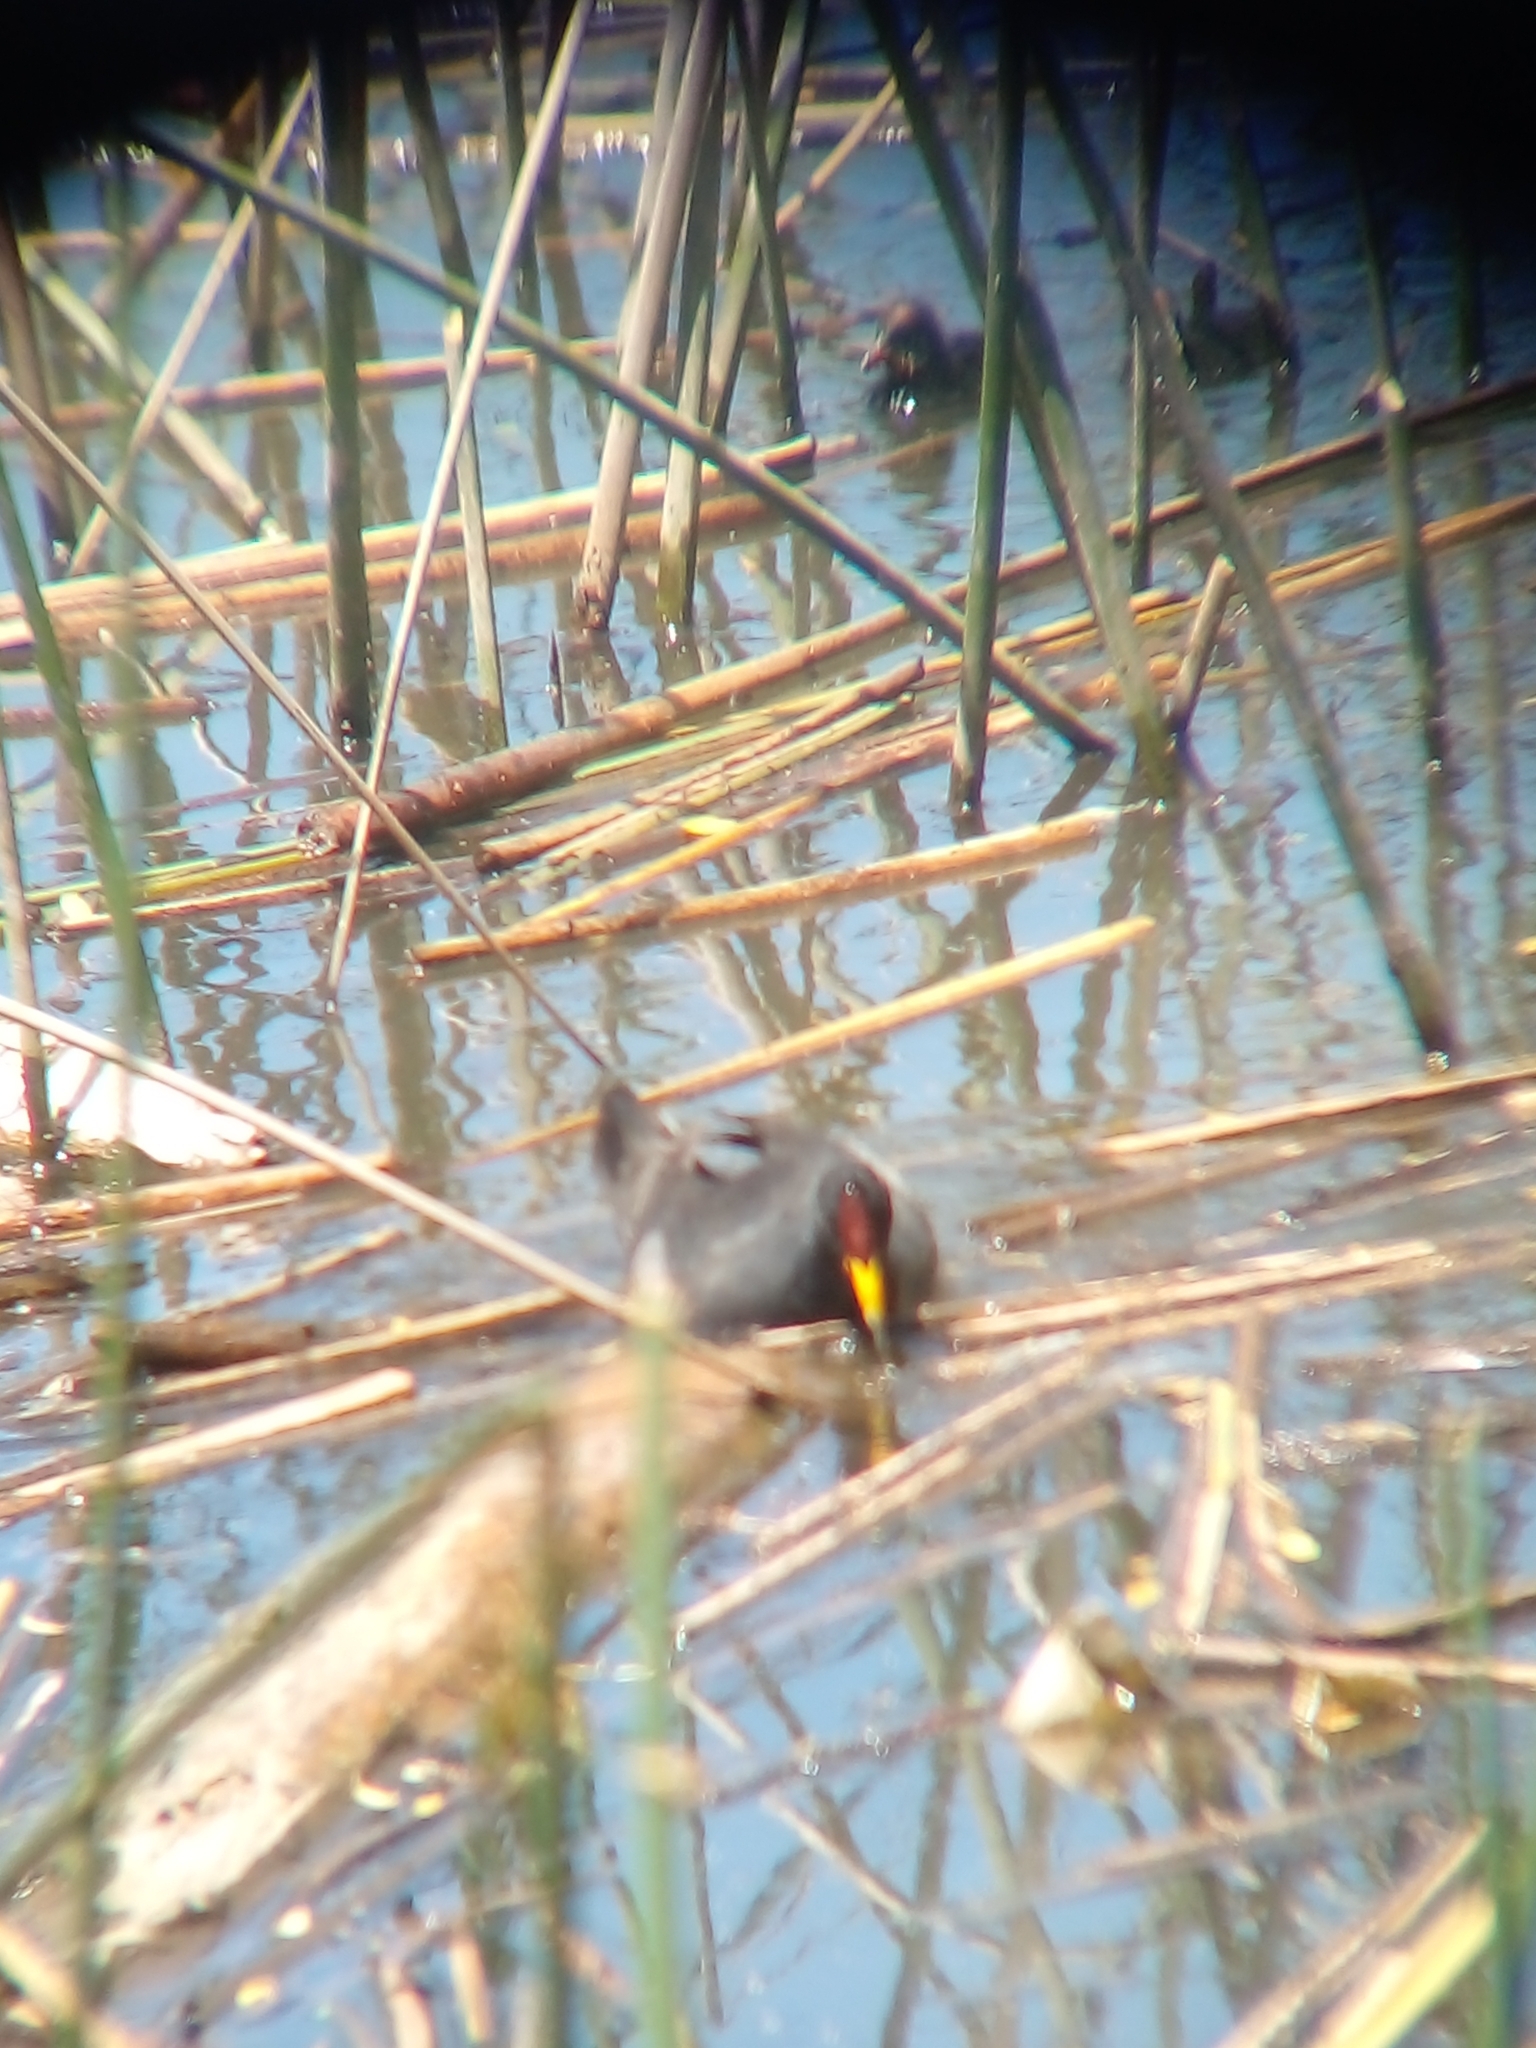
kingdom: Animalia
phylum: Chordata
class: Aves
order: Gruiformes
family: Rallidae
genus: Fulica
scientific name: Fulica rufifrons
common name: Red-fronted coot
